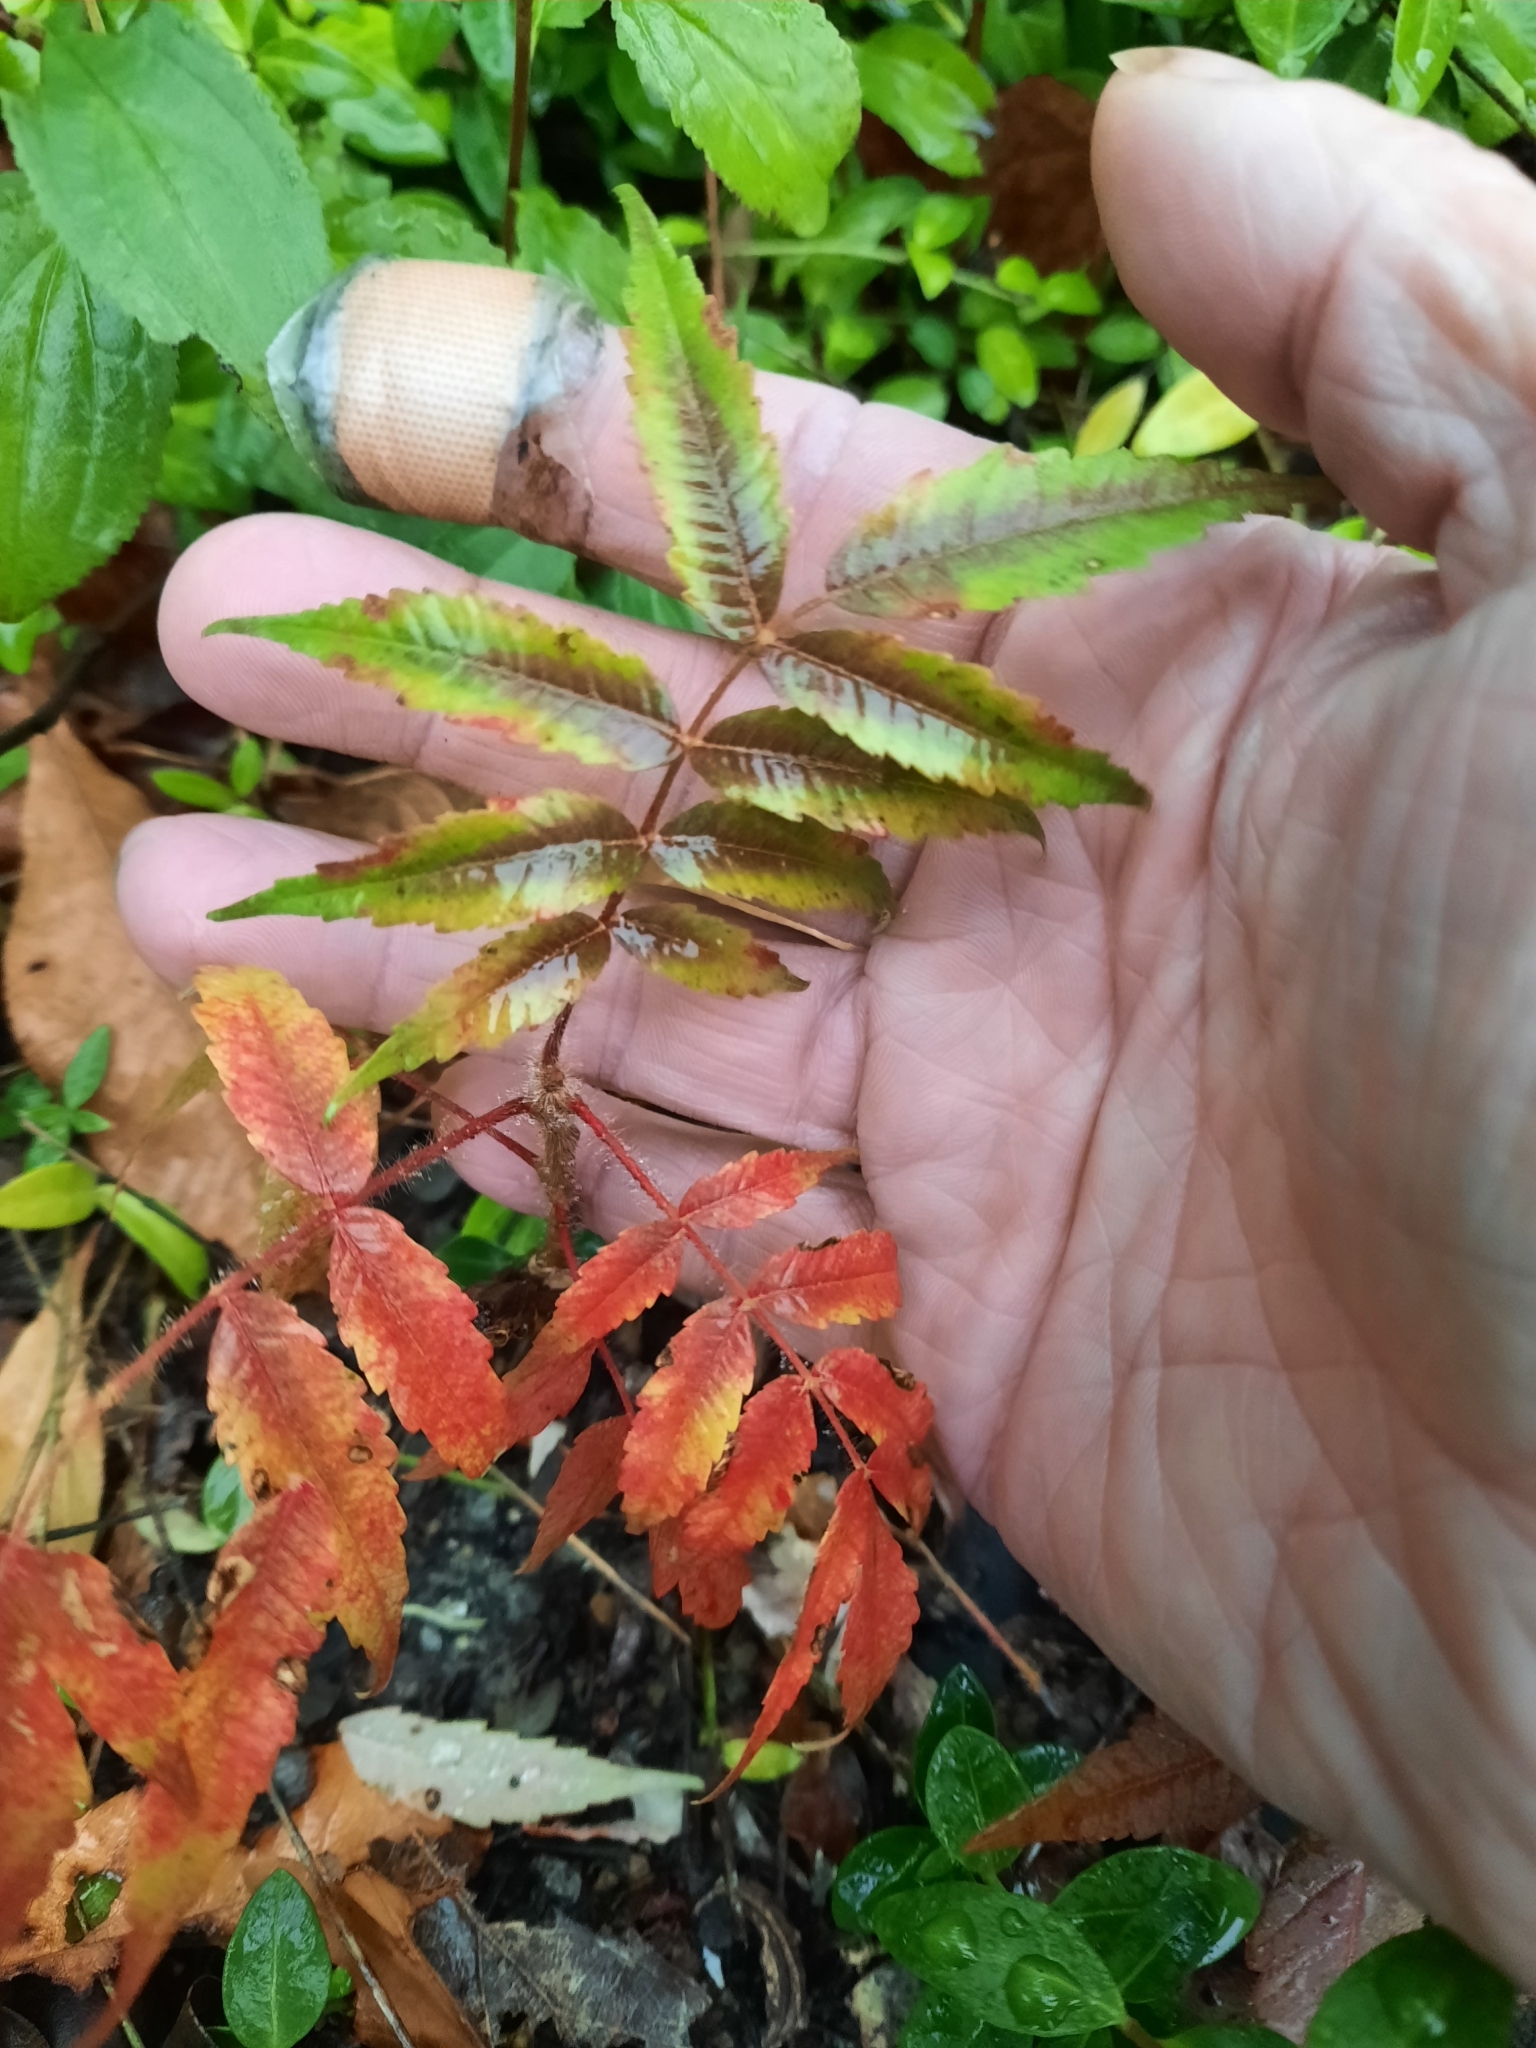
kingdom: Plantae
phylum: Tracheophyta
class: Magnoliopsida
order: Sapindales
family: Anacardiaceae
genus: Rhus
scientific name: Rhus typhina
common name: Staghorn sumac
